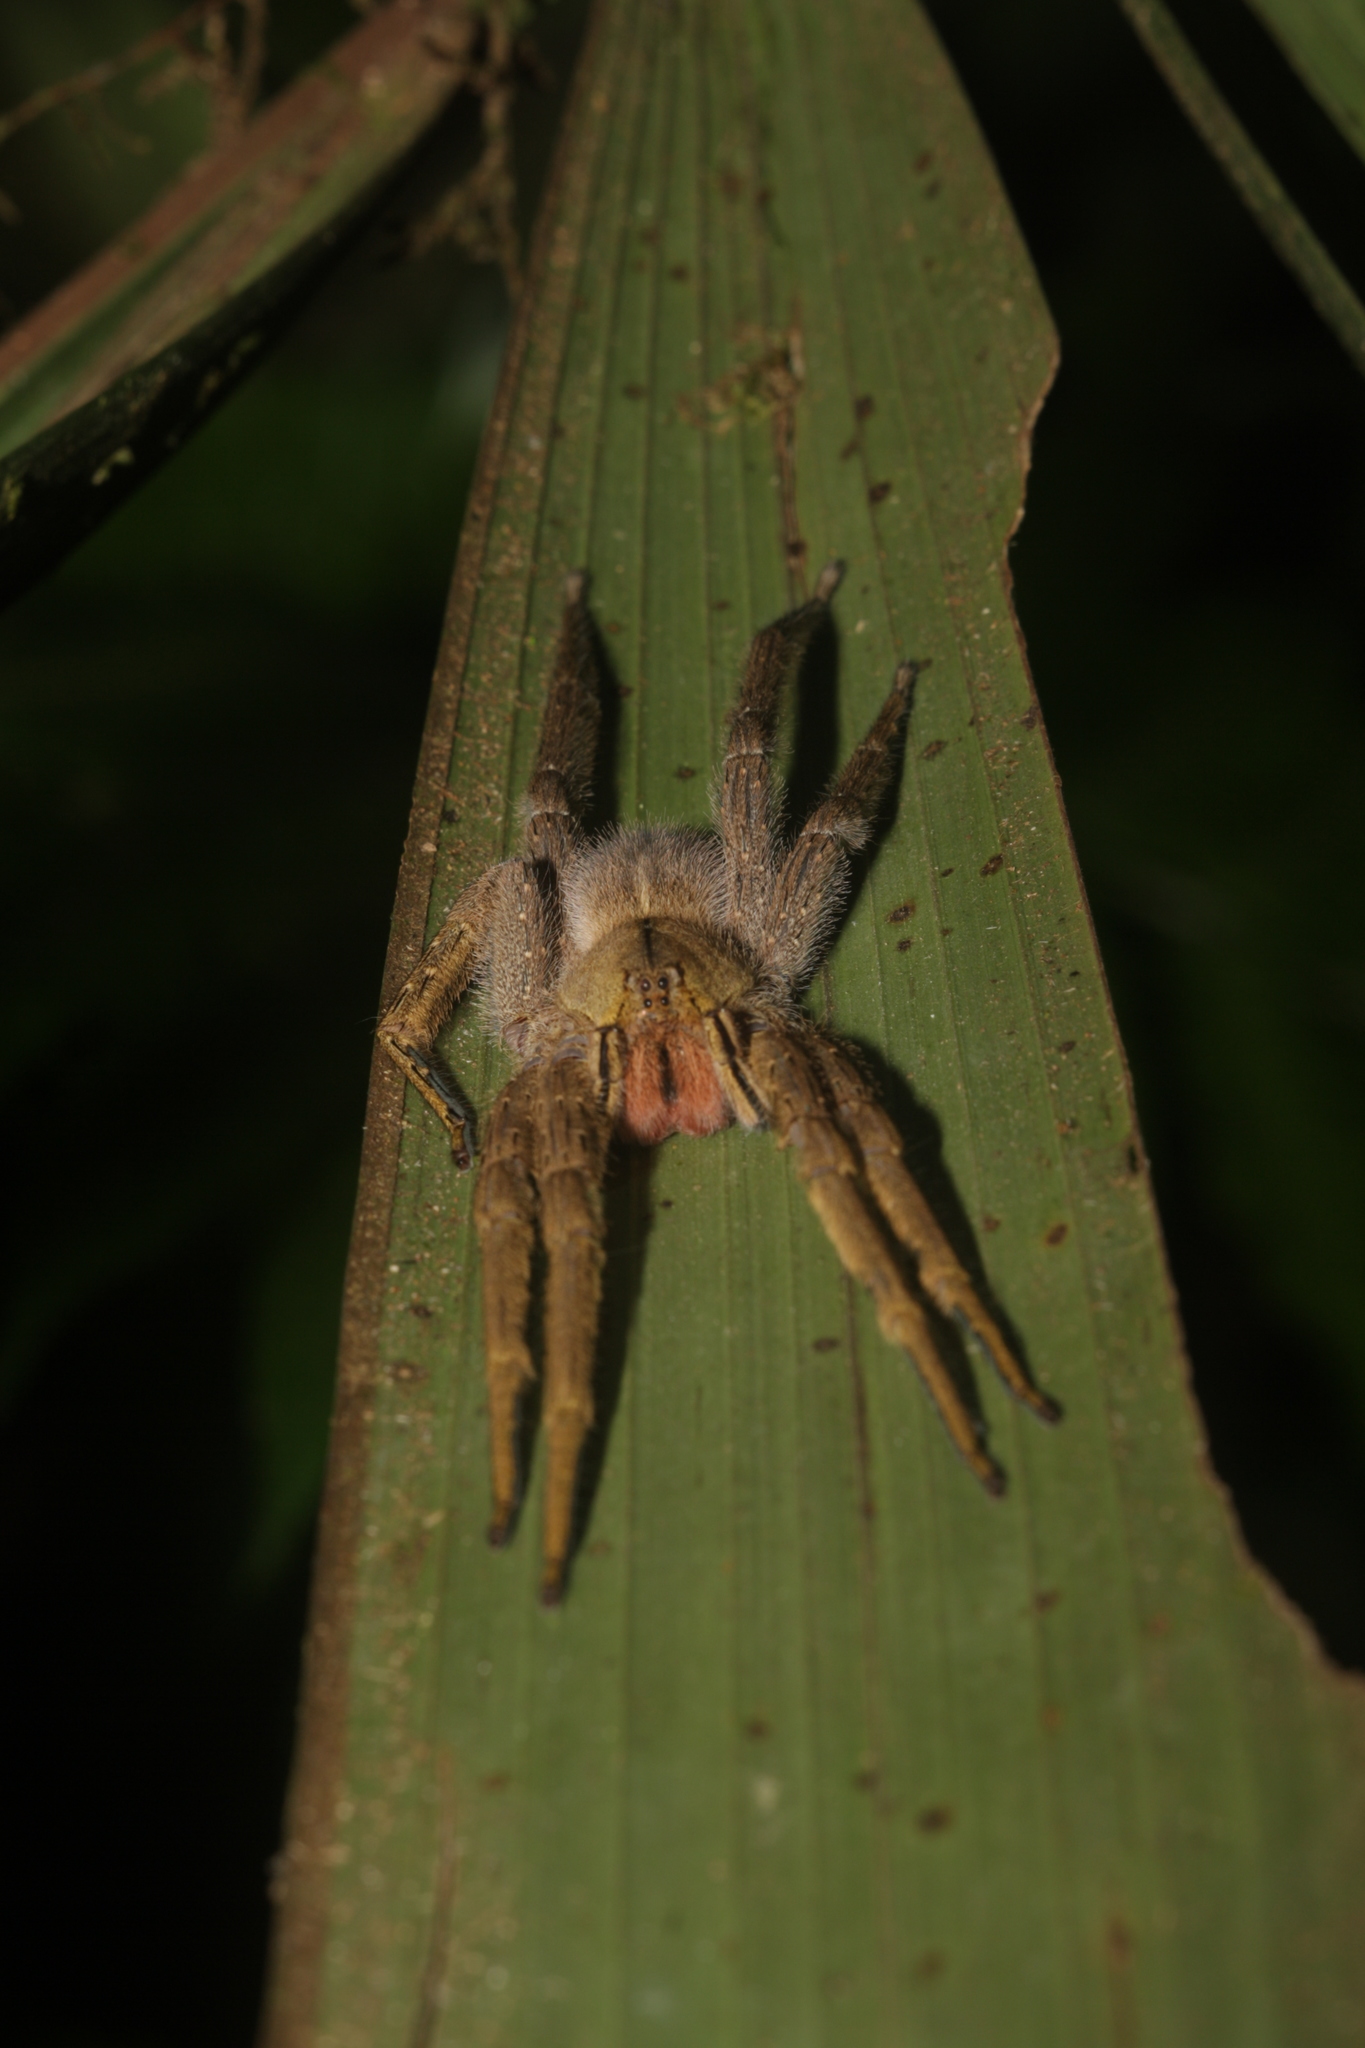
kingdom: Animalia
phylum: Arthropoda
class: Arachnida
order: Araneae
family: Ctenidae
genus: Phoneutria
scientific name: Phoneutria depilata
